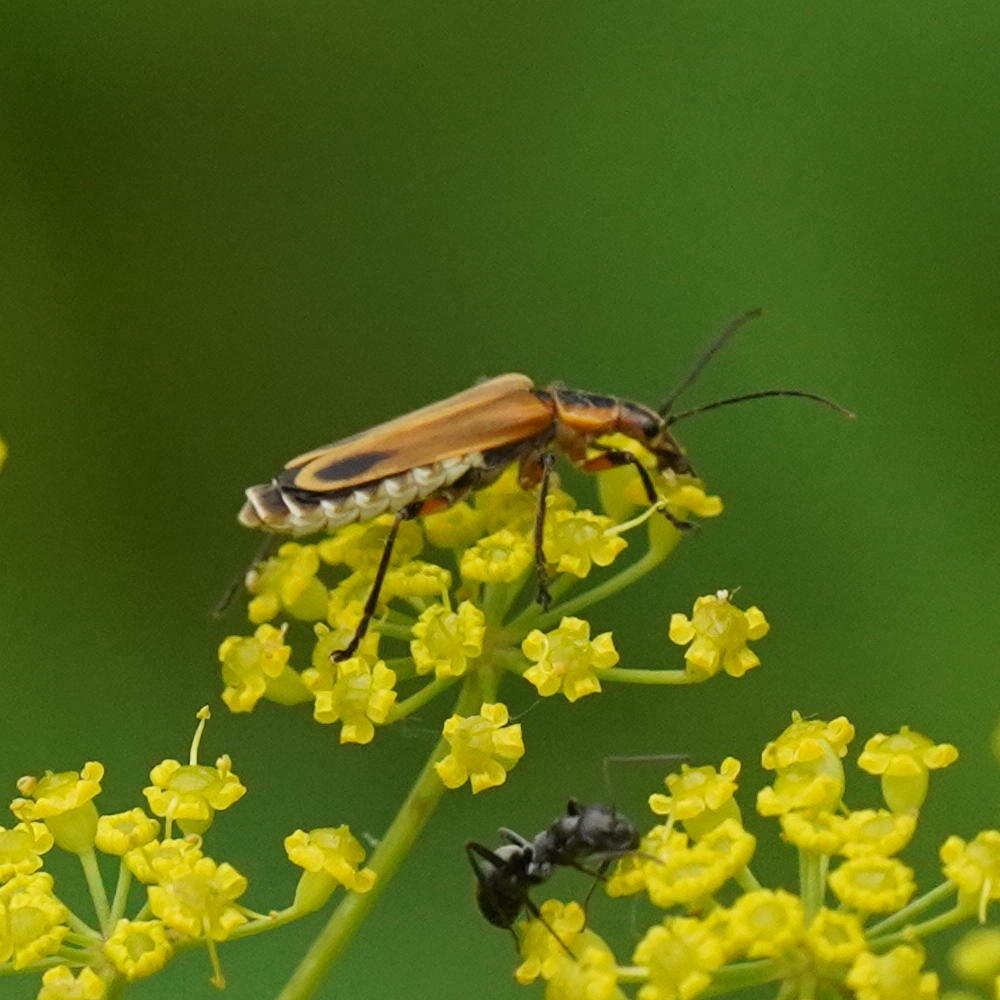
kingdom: Animalia
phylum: Arthropoda
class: Insecta
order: Coleoptera
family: Cantharidae
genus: Chauliognathus
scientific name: Chauliognathus marginatus
